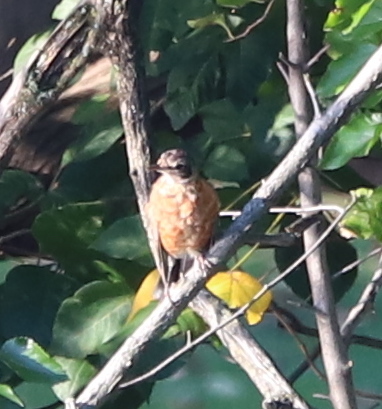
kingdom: Animalia
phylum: Chordata
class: Aves
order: Passeriformes
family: Turdidae
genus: Turdus
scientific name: Turdus migratorius
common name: American robin
